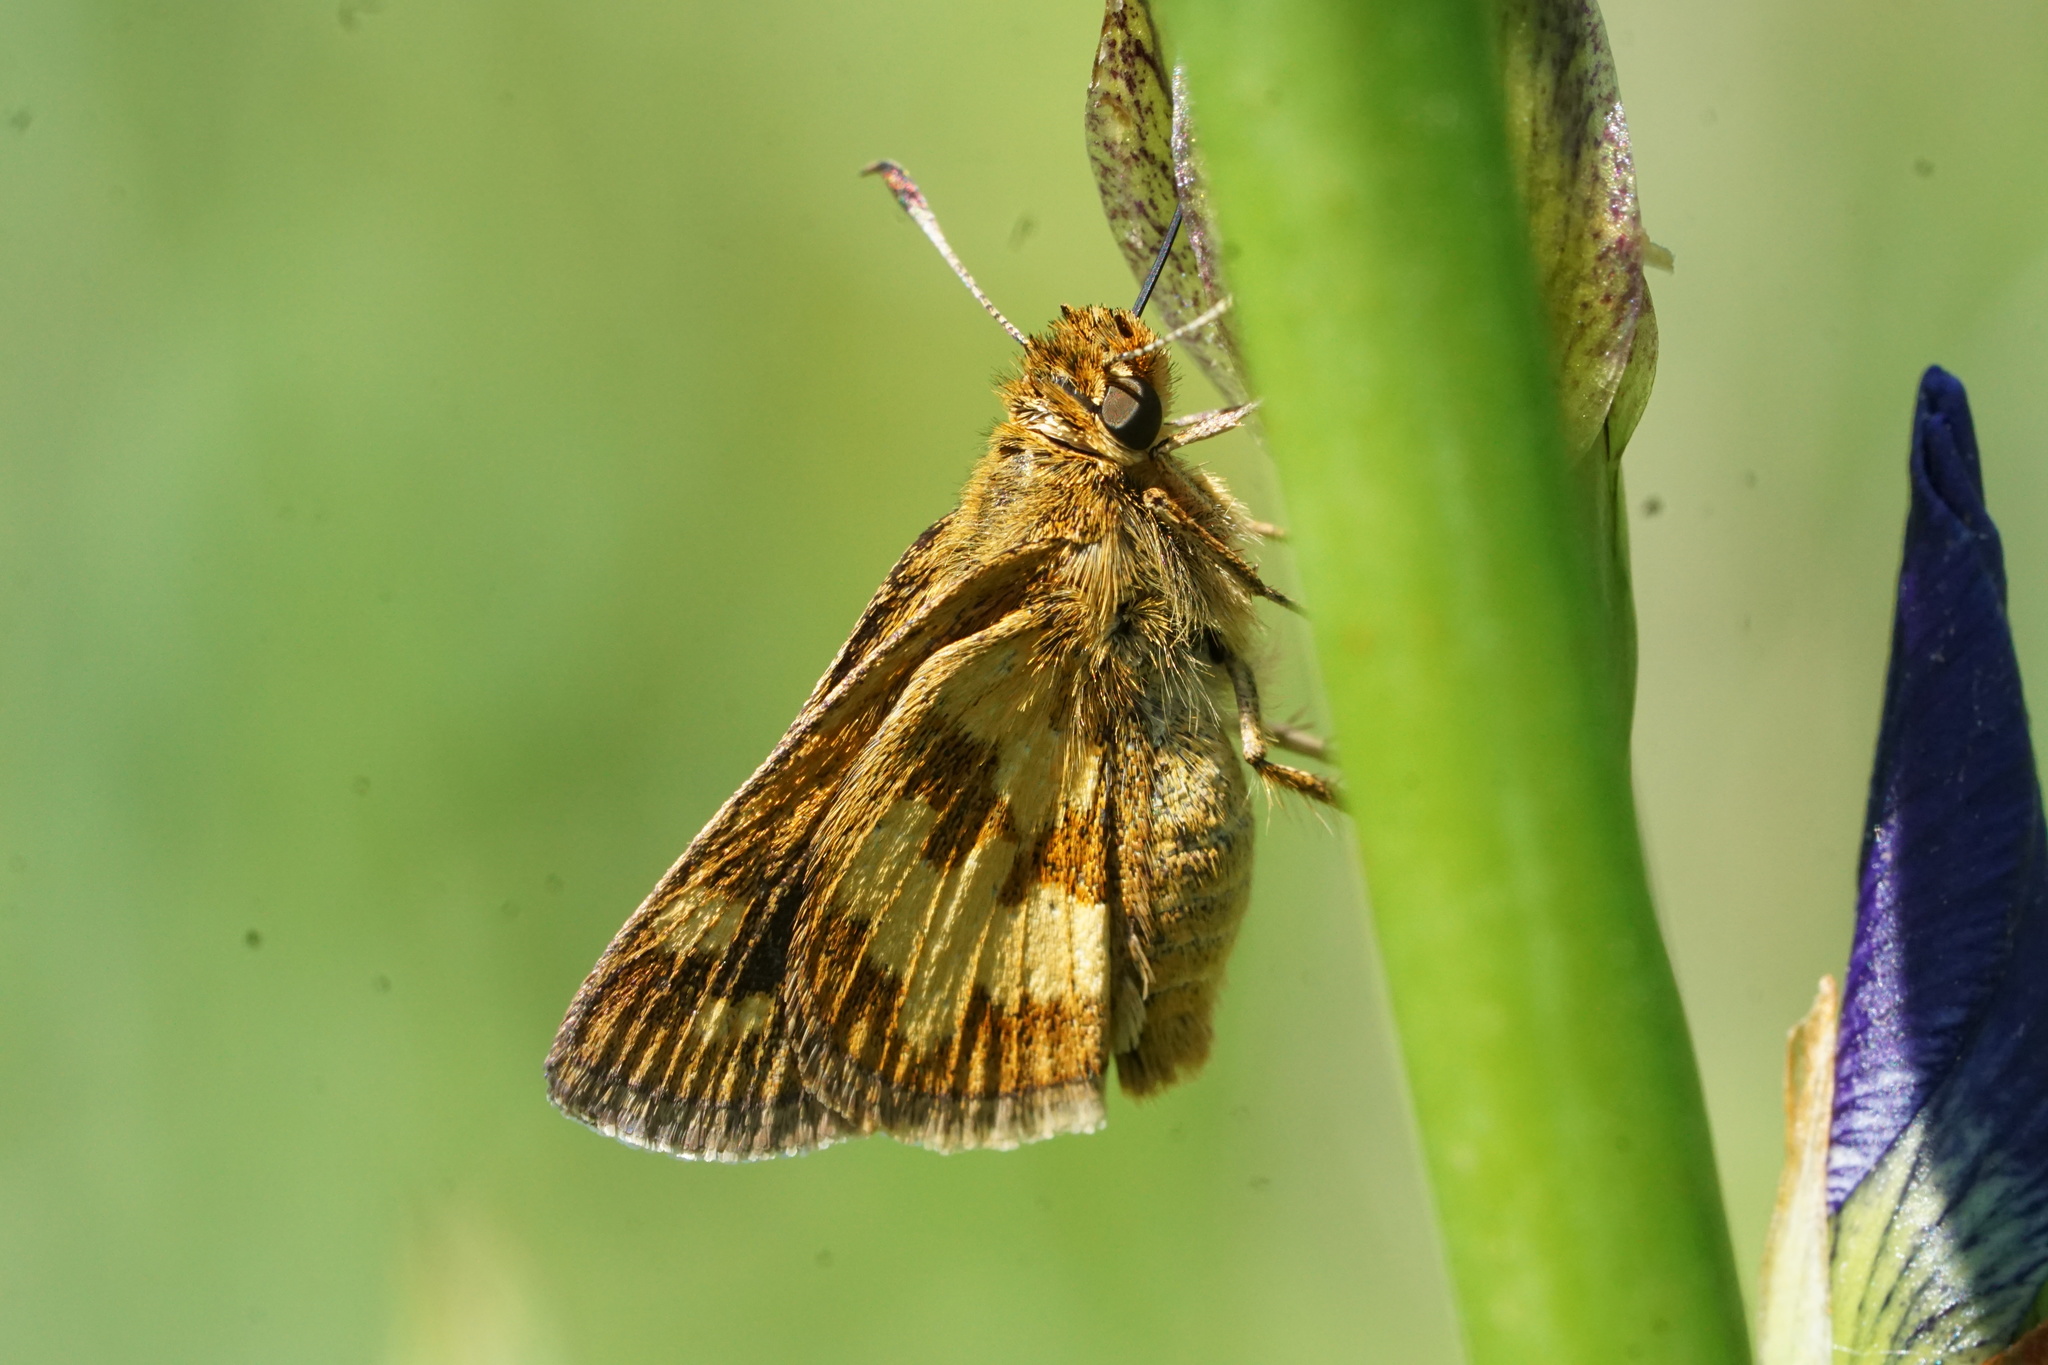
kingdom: Animalia
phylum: Arthropoda
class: Insecta
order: Lepidoptera
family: Hesperiidae
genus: Polites
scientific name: Polites coras
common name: Peck's skipper
